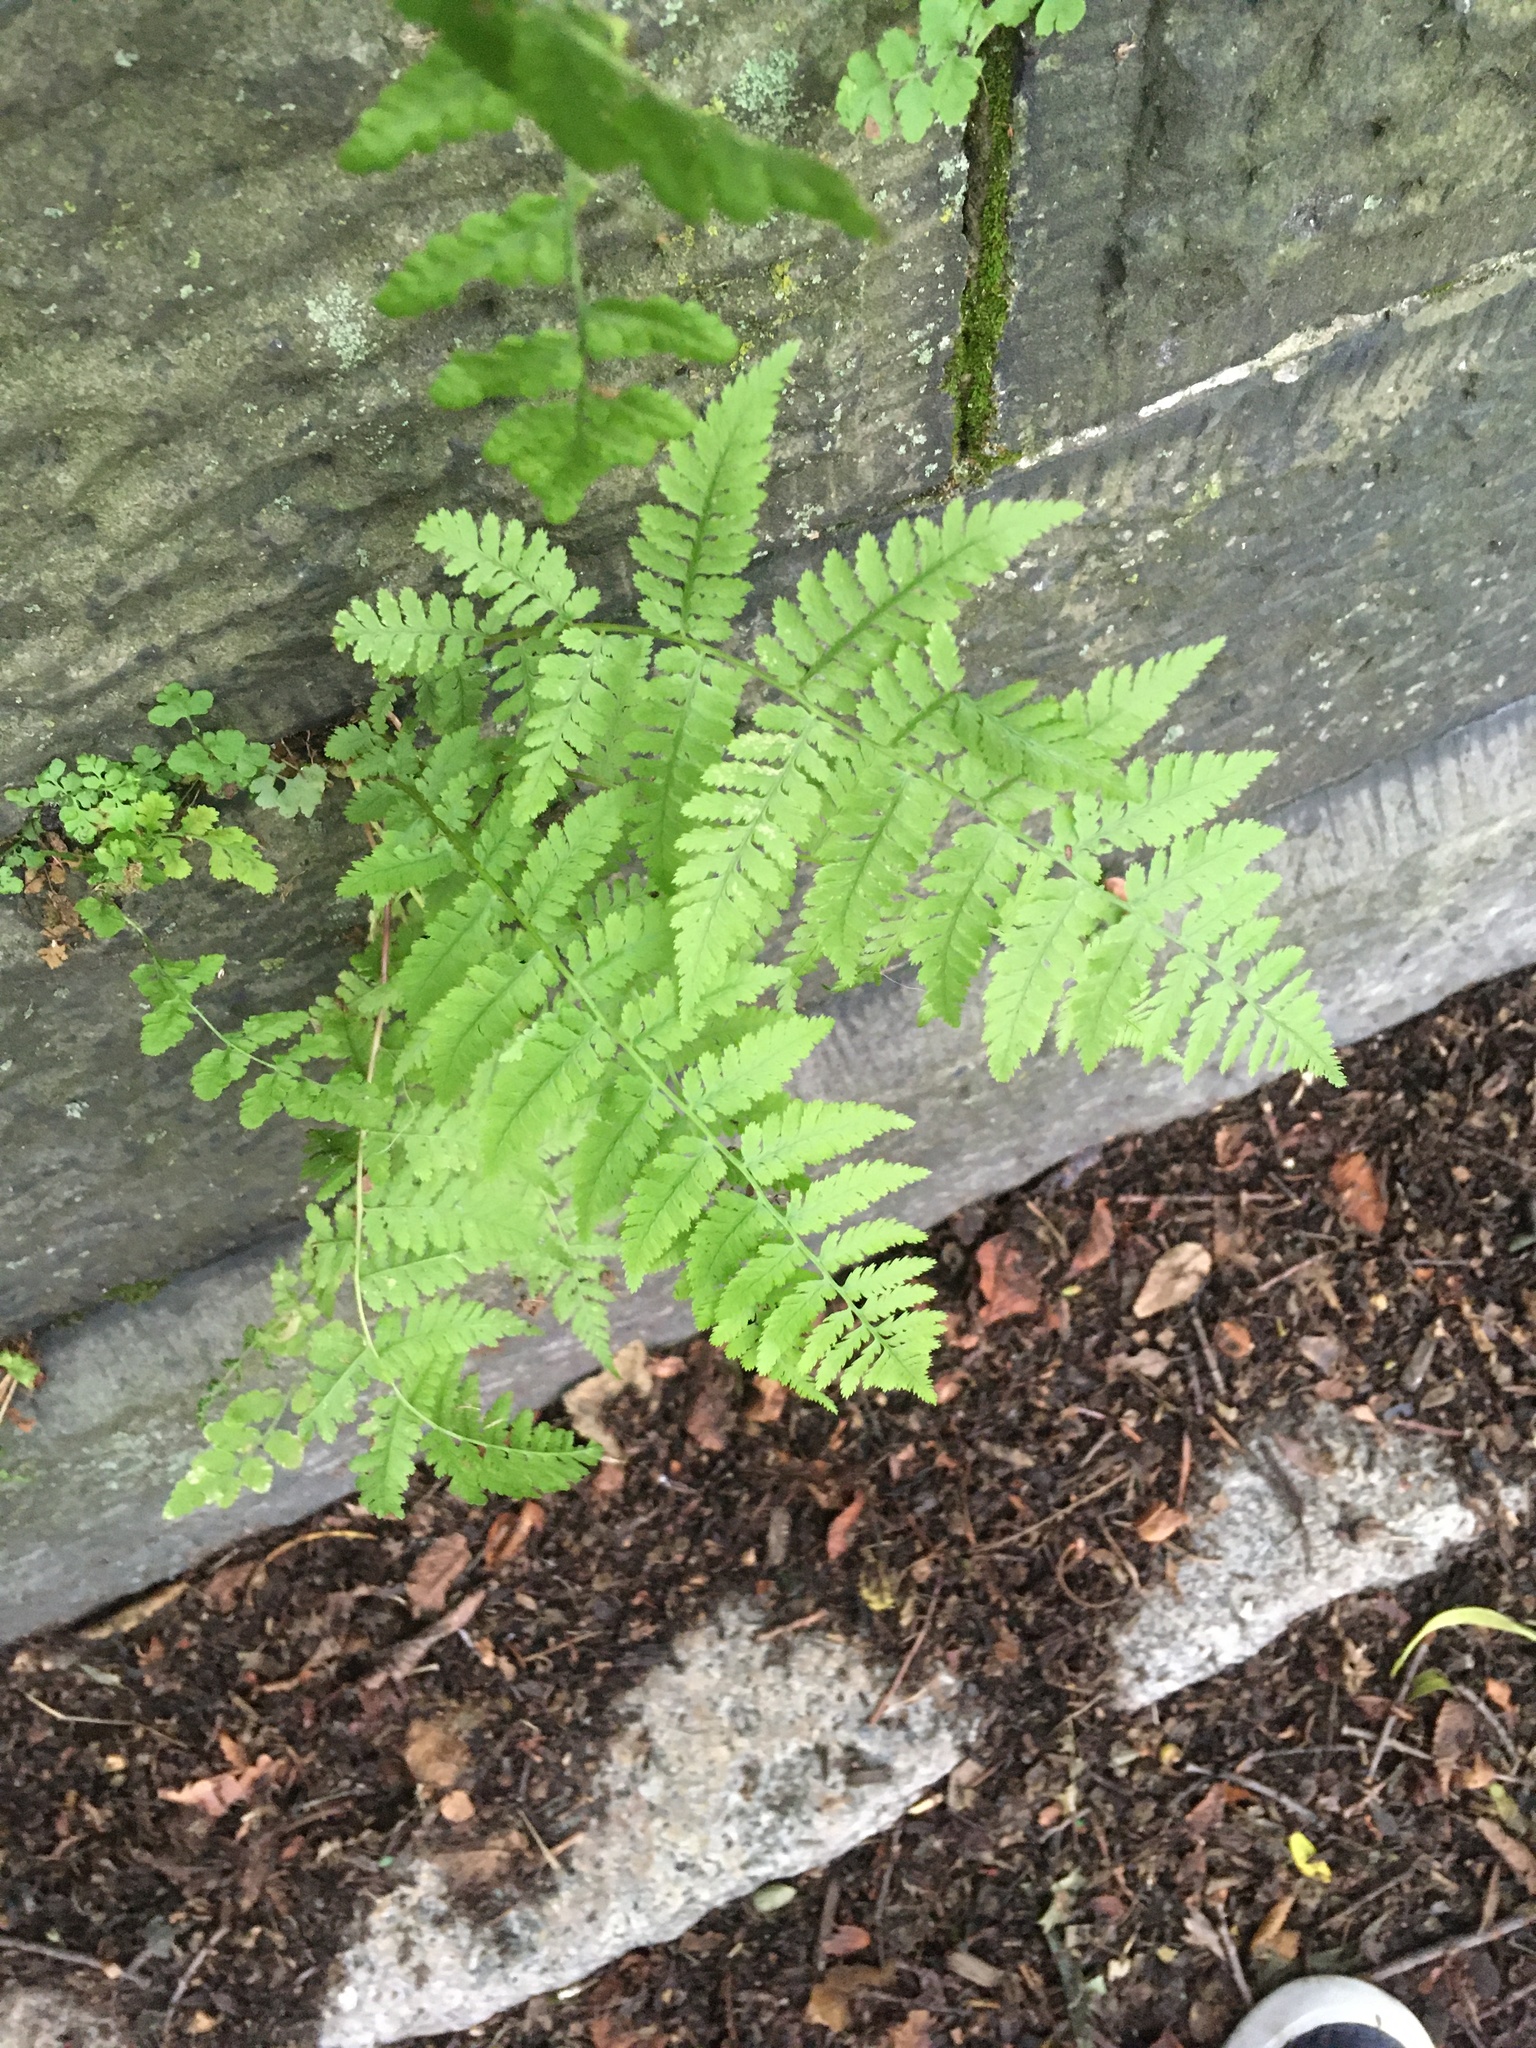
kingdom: Plantae
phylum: Tracheophyta
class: Polypodiopsida
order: Polypodiales
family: Athyriaceae
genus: Athyrium
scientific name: Athyrium angustum
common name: Northern lady fern
